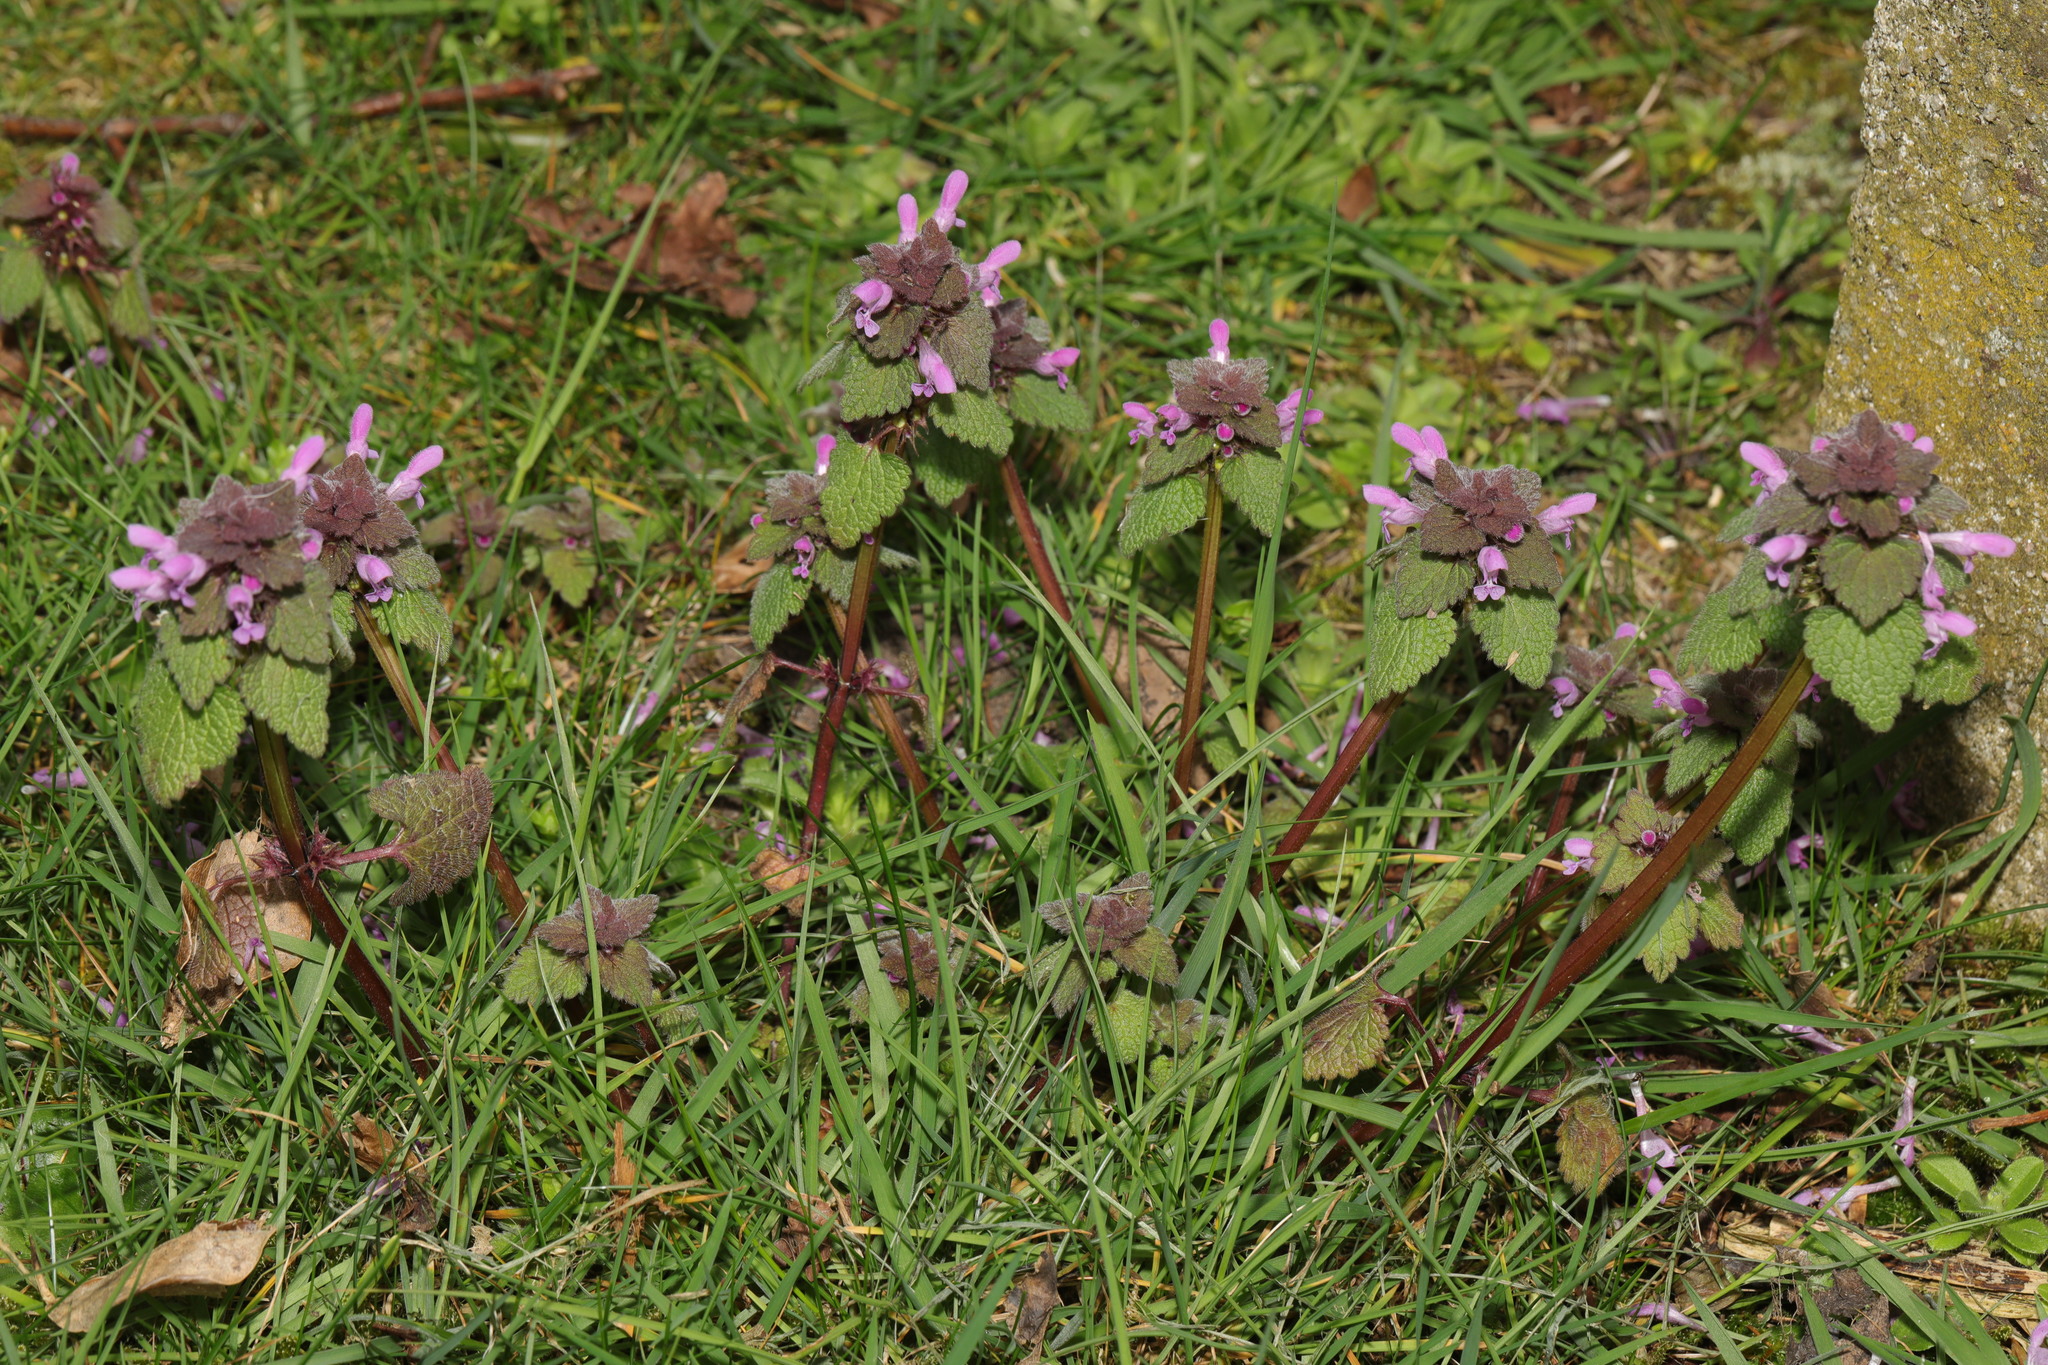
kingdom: Plantae
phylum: Tracheophyta
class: Magnoliopsida
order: Lamiales
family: Lamiaceae
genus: Lamium
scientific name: Lamium purpureum
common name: Red dead-nettle
